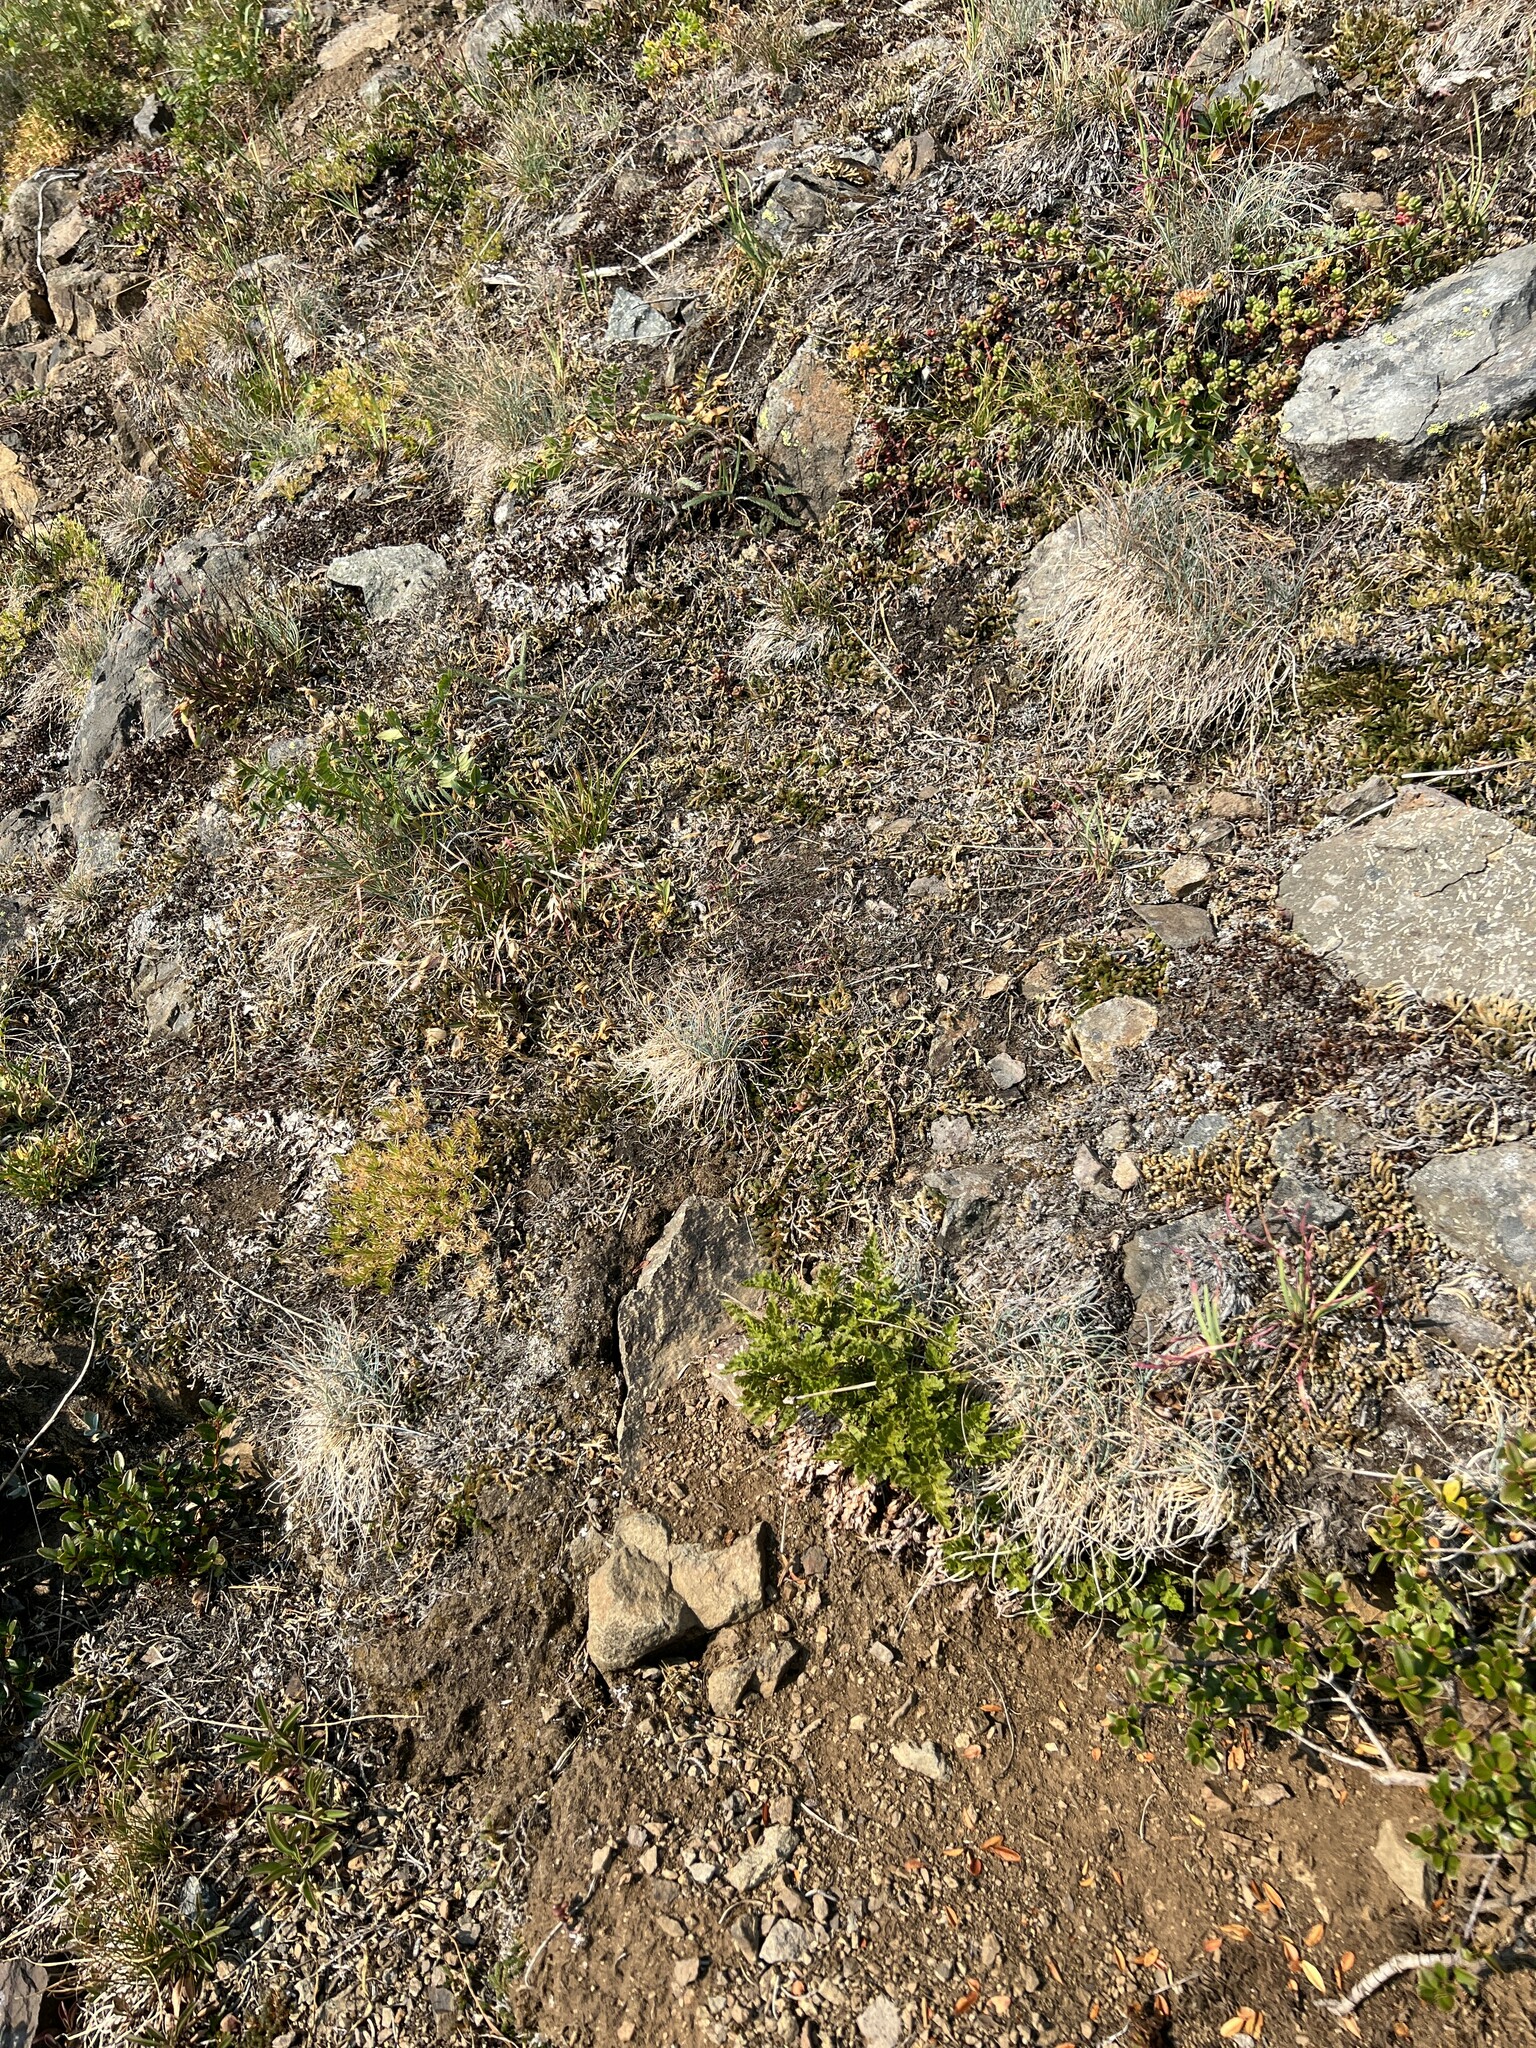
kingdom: Plantae
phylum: Tracheophyta
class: Polypodiopsida
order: Polypodiales
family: Pteridaceae
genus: Cryptogramma
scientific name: Cryptogramma acrostichoides
